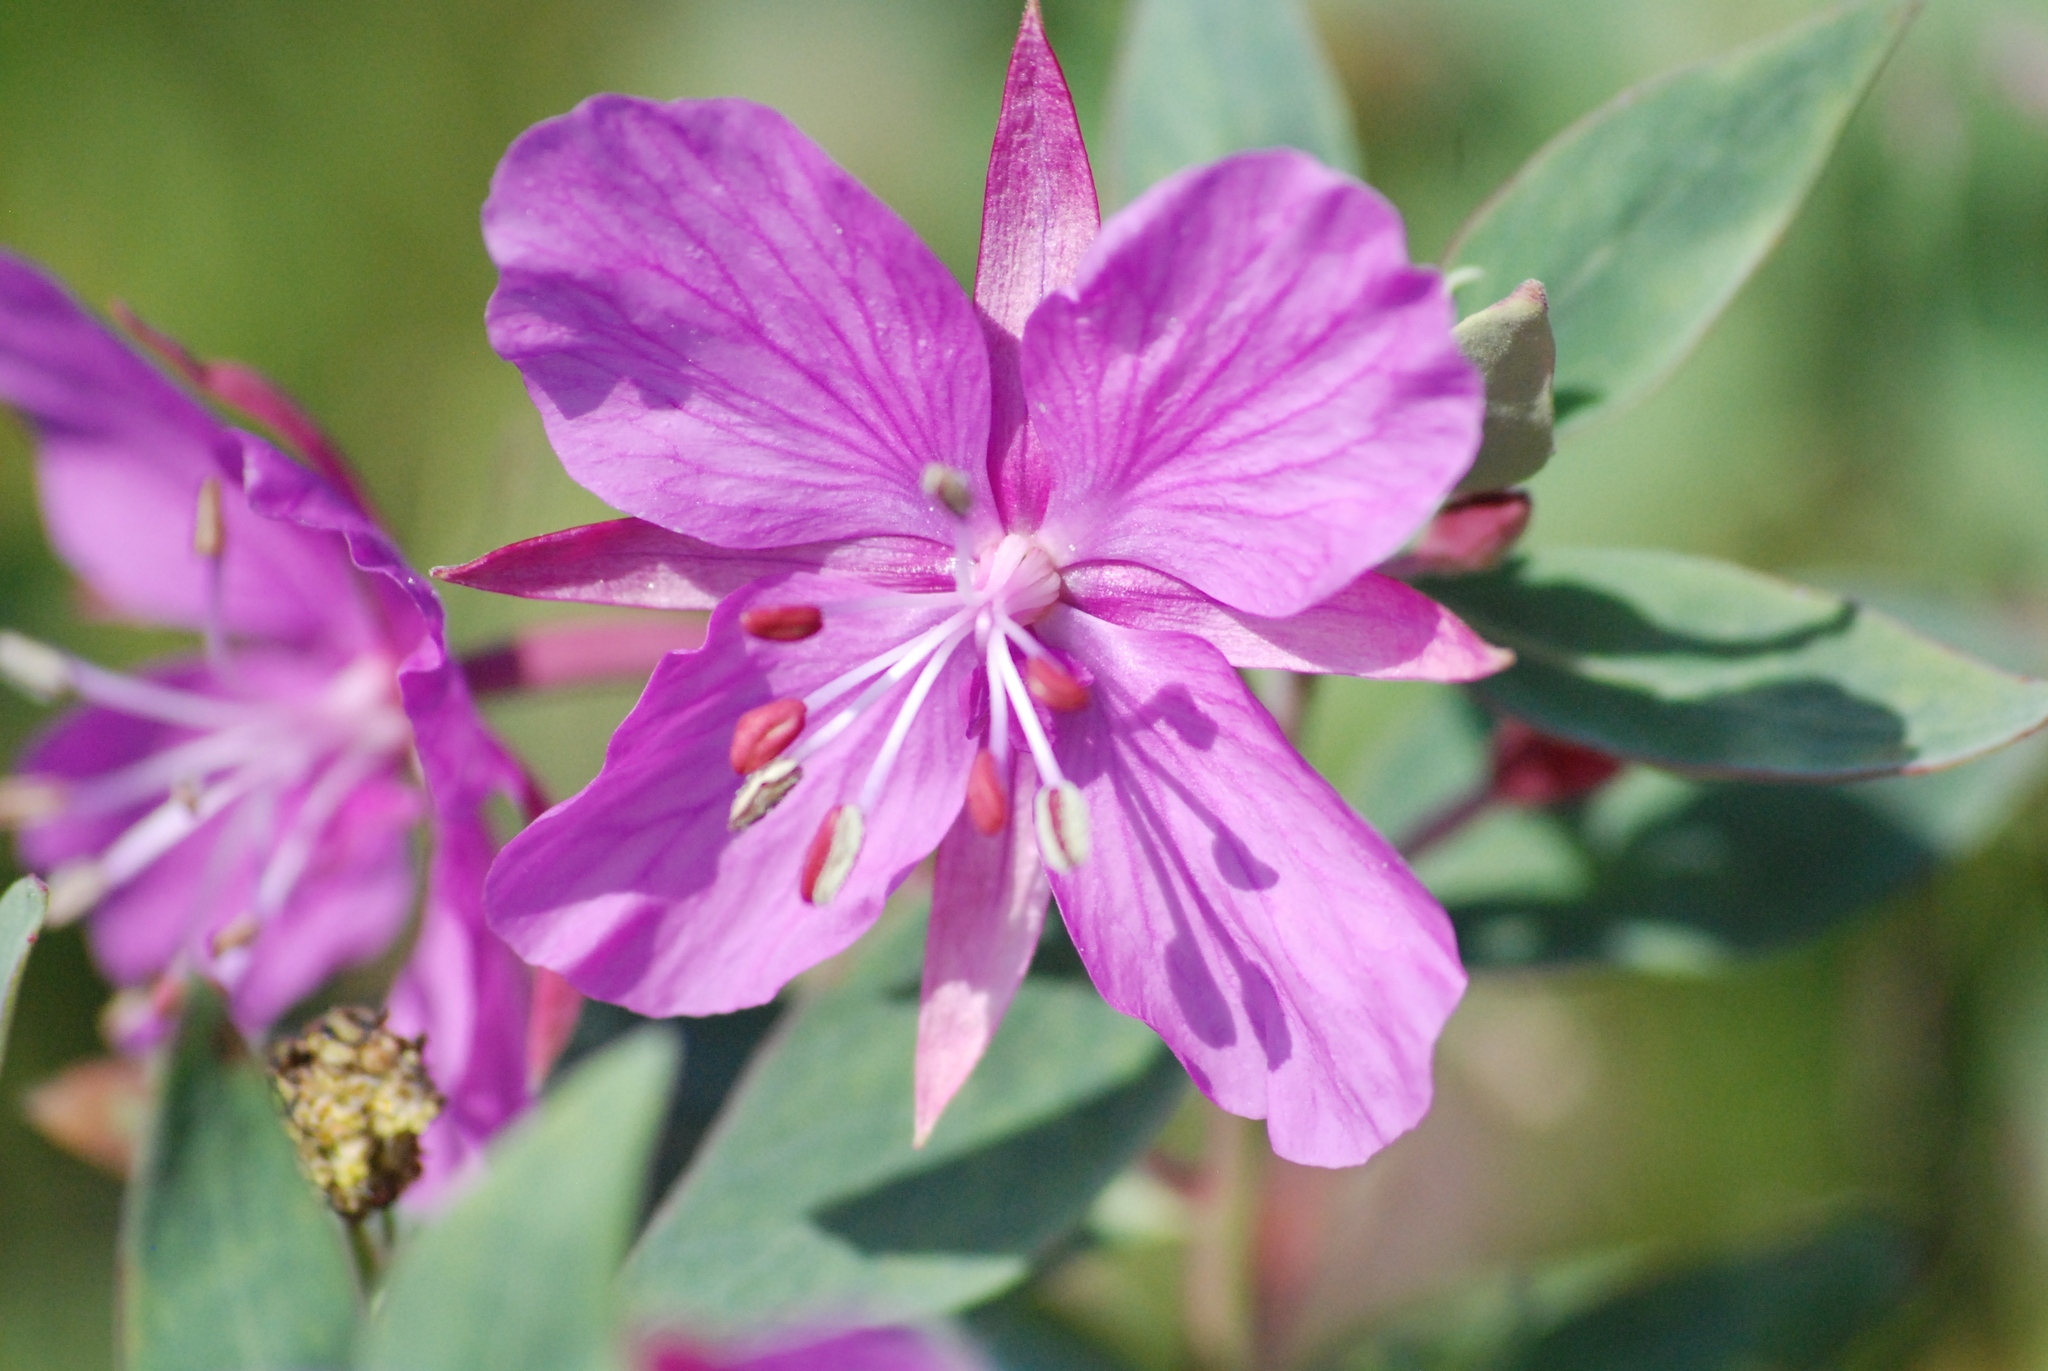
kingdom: Plantae
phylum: Tracheophyta
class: Magnoliopsida
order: Myrtales
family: Onagraceae
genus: Chamaenerion
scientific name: Chamaenerion latifolium
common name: Dwarf fireweed
